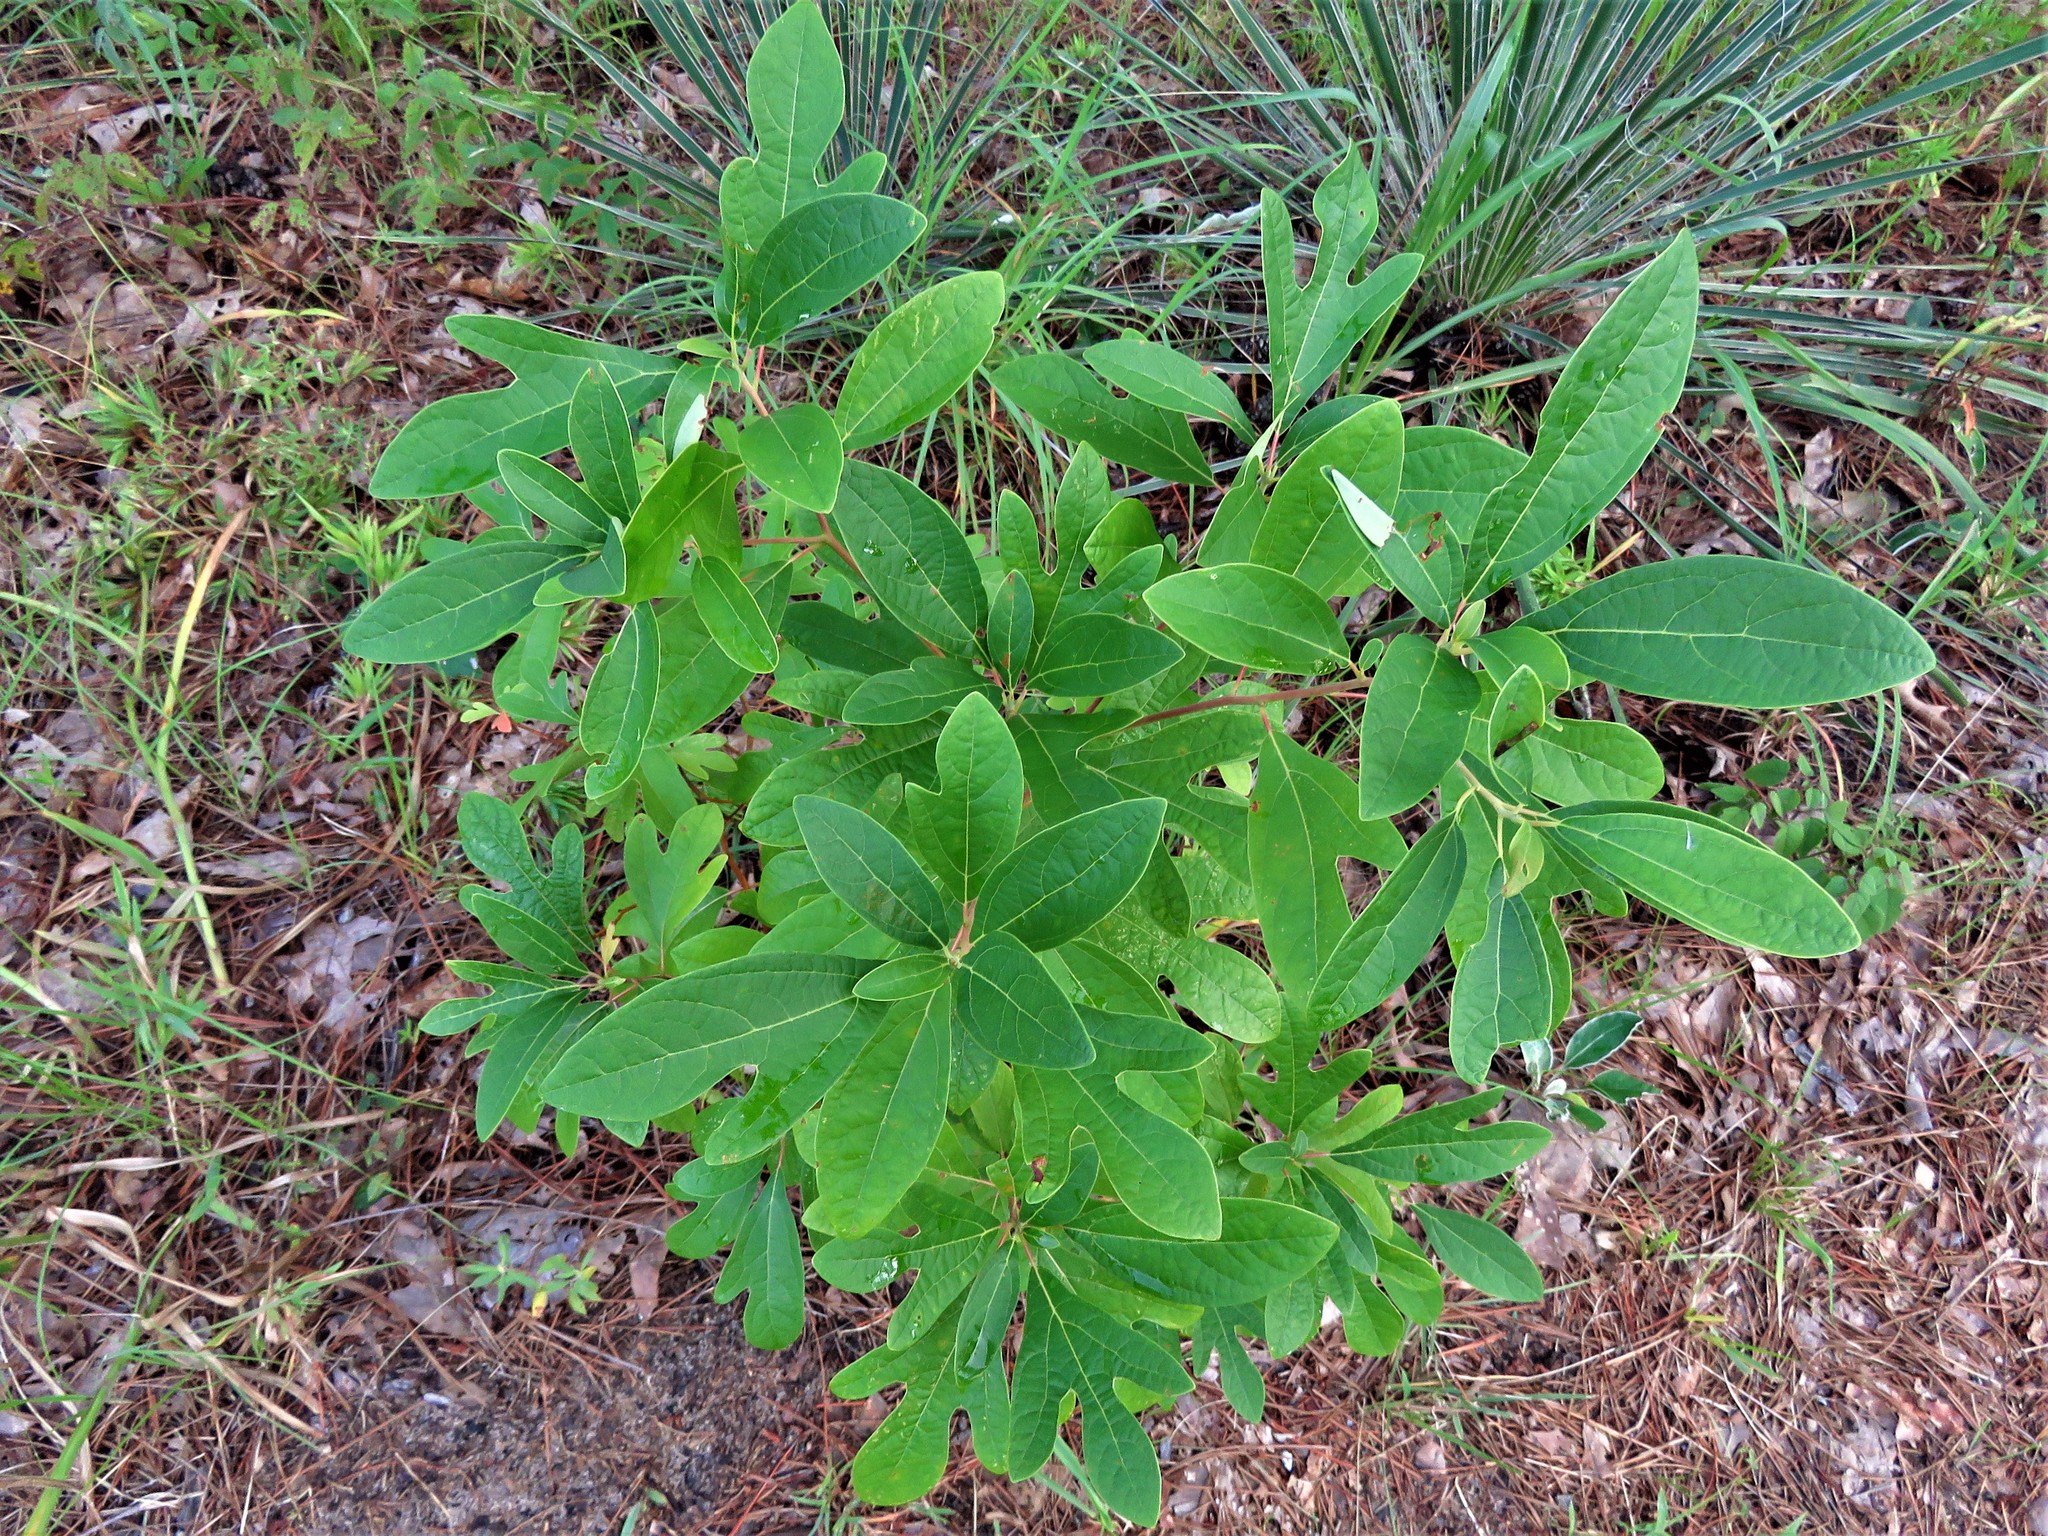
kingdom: Plantae
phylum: Tracheophyta
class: Magnoliopsida
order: Laurales
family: Lauraceae
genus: Sassafras
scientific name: Sassafras albidum
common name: Sassafras
